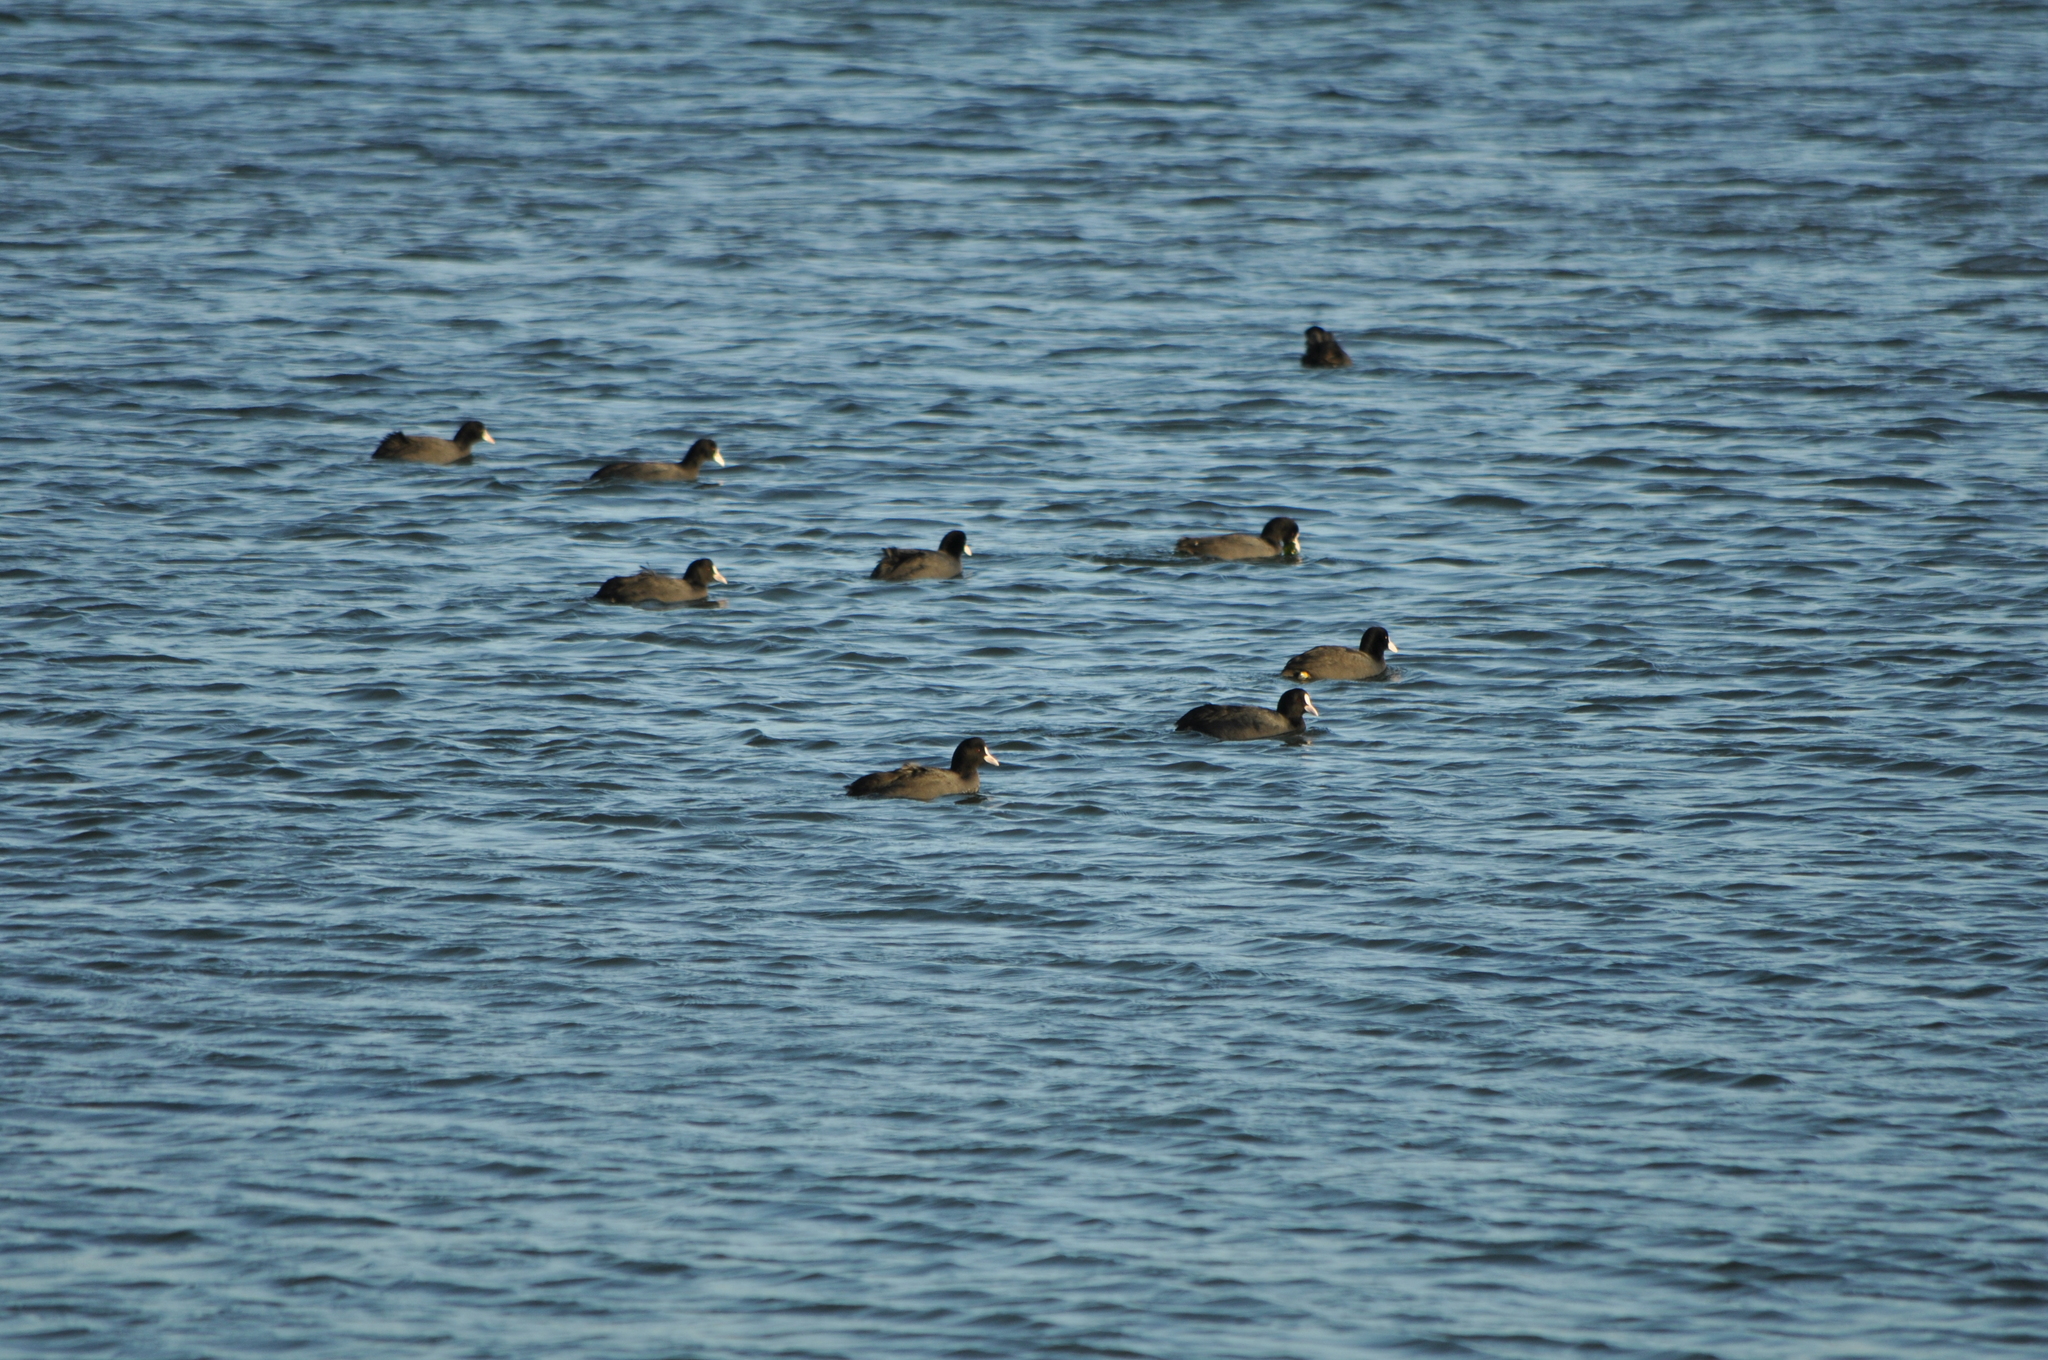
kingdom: Animalia
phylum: Chordata
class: Aves
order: Gruiformes
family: Rallidae
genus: Fulica
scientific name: Fulica atra
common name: Eurasian coot
